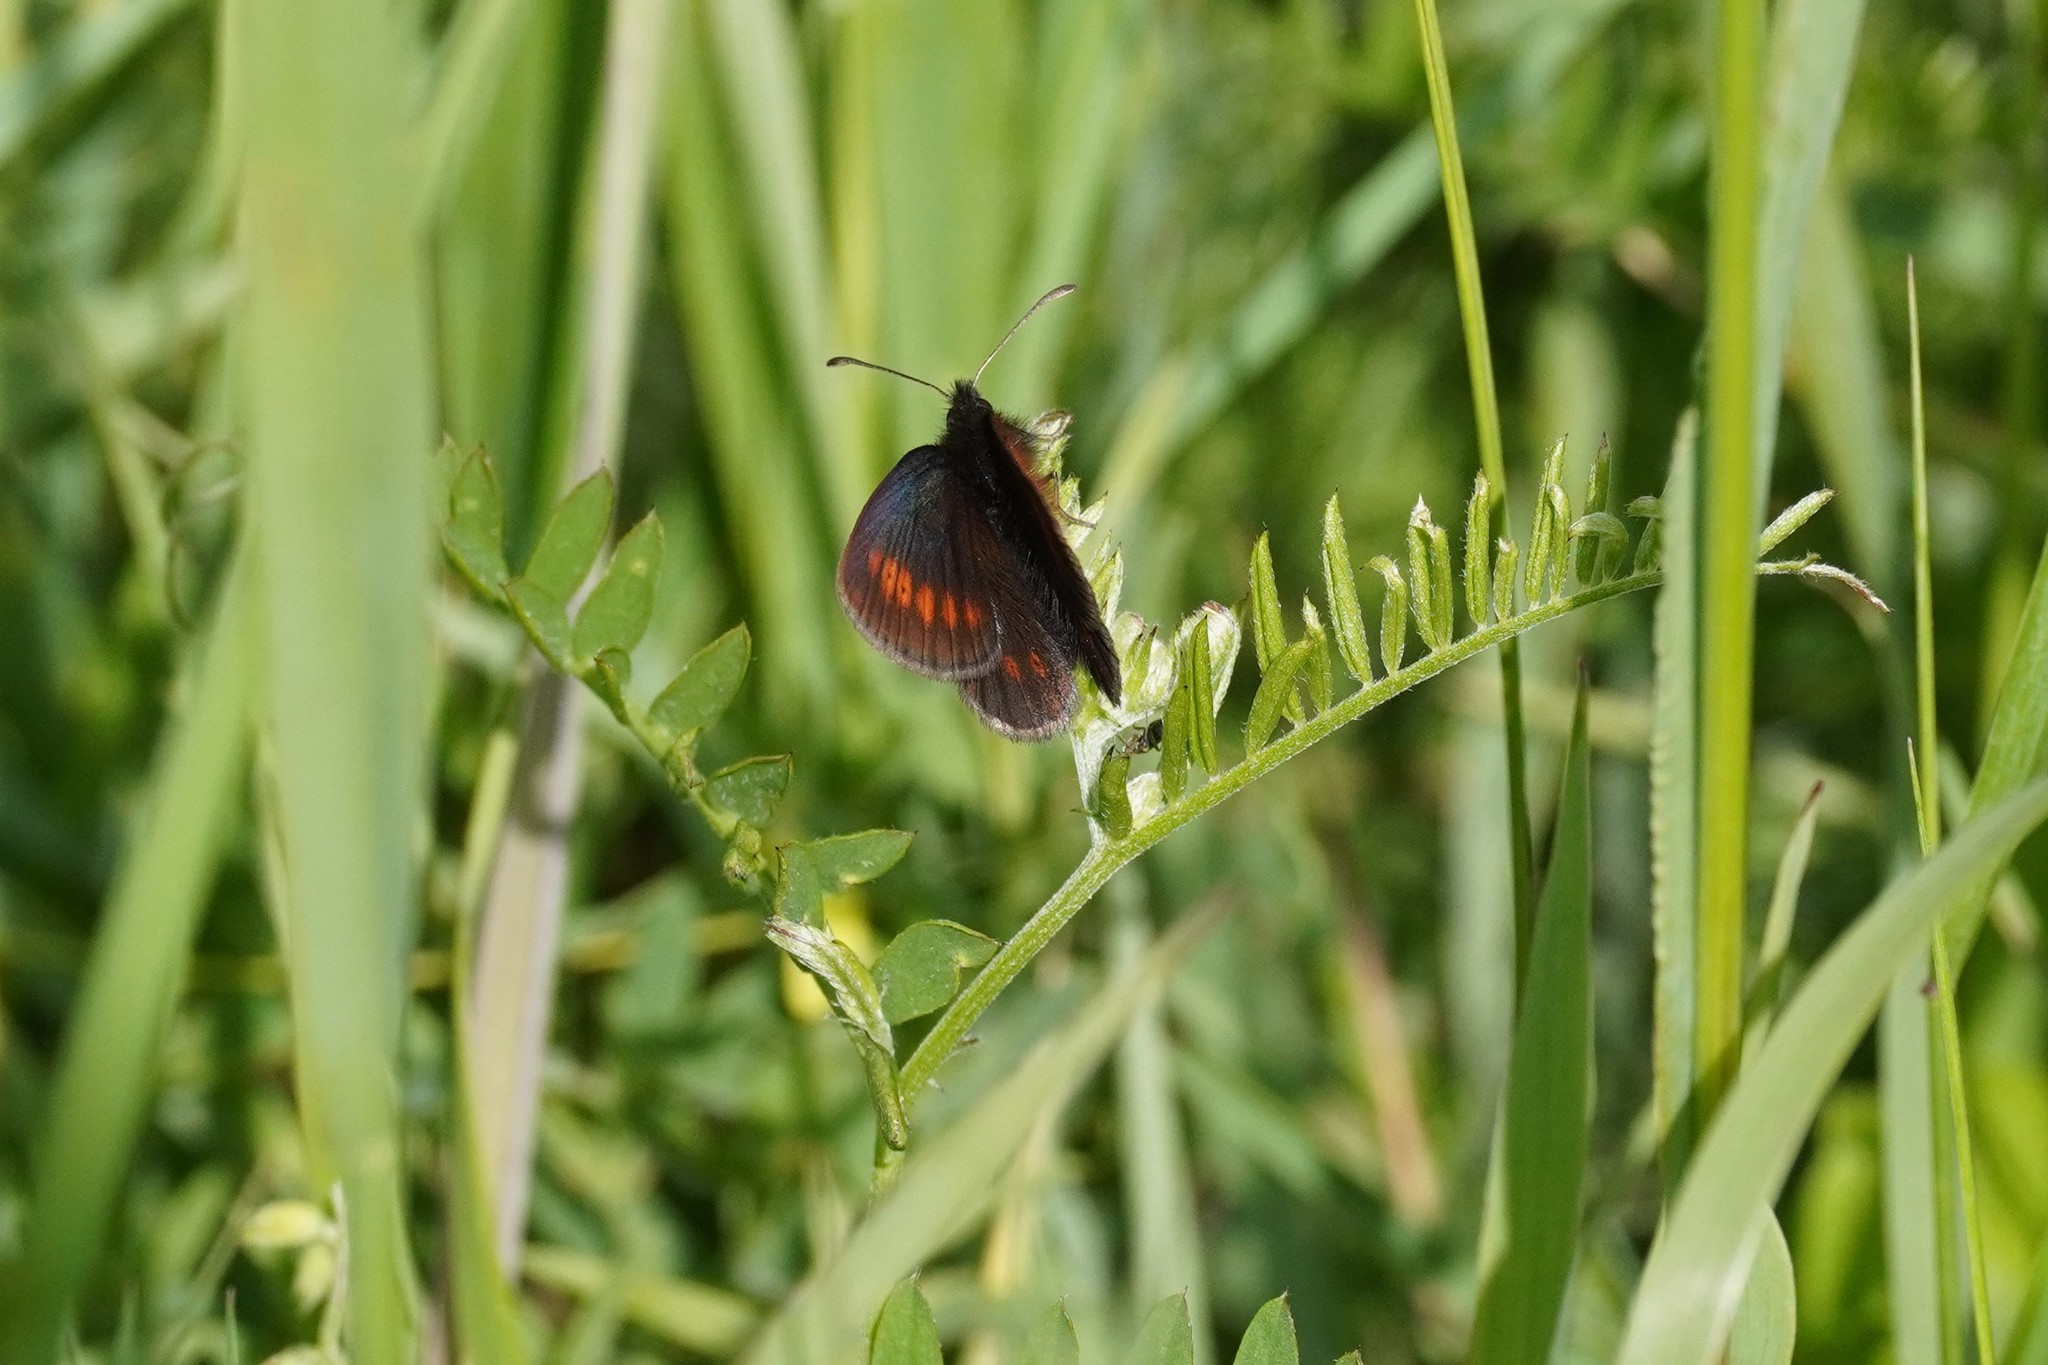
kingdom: Animalia
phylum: Arthropoda
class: Insecta
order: Lepidoptera
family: Nymphalidae
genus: Erebia
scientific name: Erebia melampus
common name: Lesser mountain ringlet
